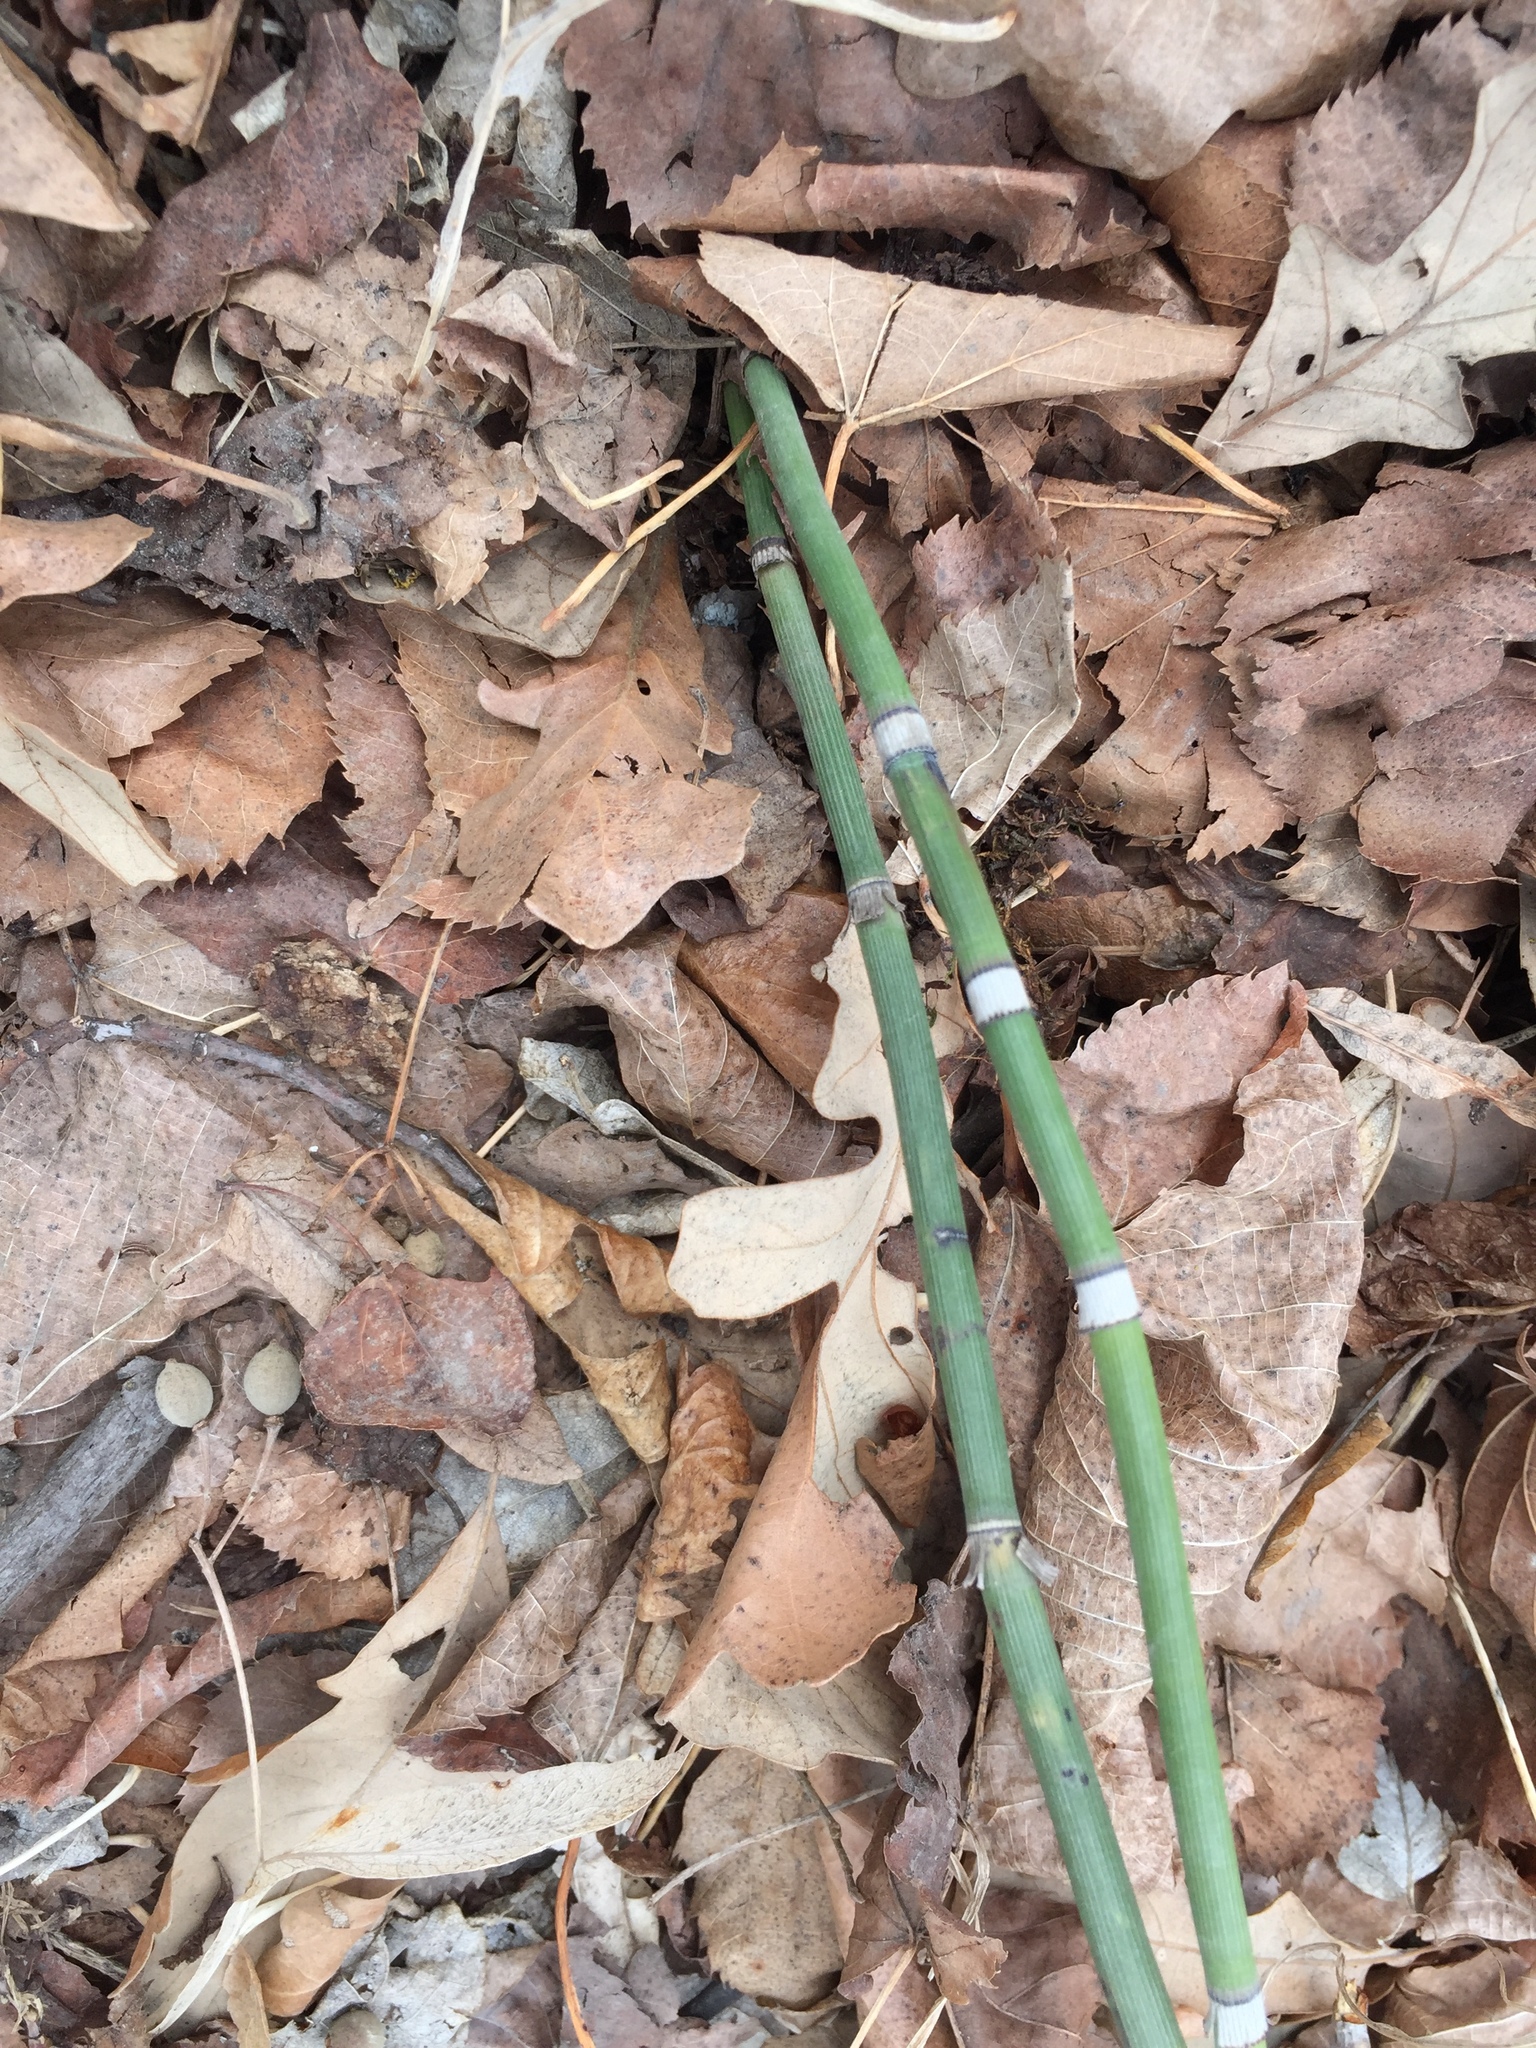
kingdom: Plantae
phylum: Tracheophyta
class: Polypodiopsida
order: Equisetales
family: Equisetaceae
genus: Equisetum
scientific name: Equisetum praealtum
